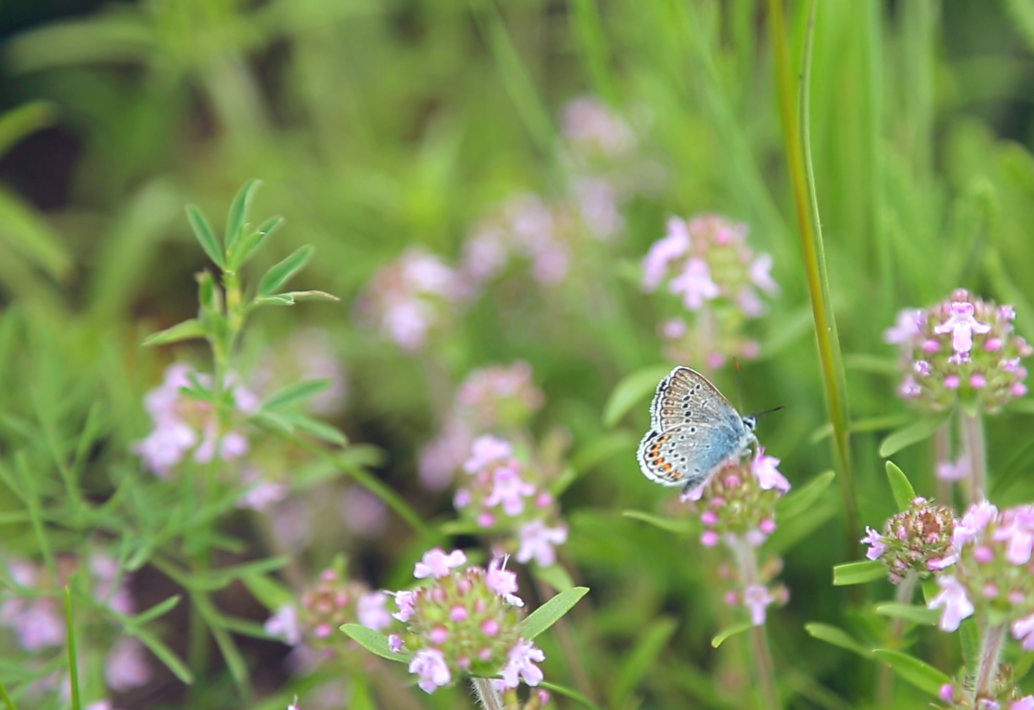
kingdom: Plantae
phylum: Tracheophyta
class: Magnoliopsida
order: Lamiales
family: Lamiaceae
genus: Thymus
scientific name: Thymus dimorphus
